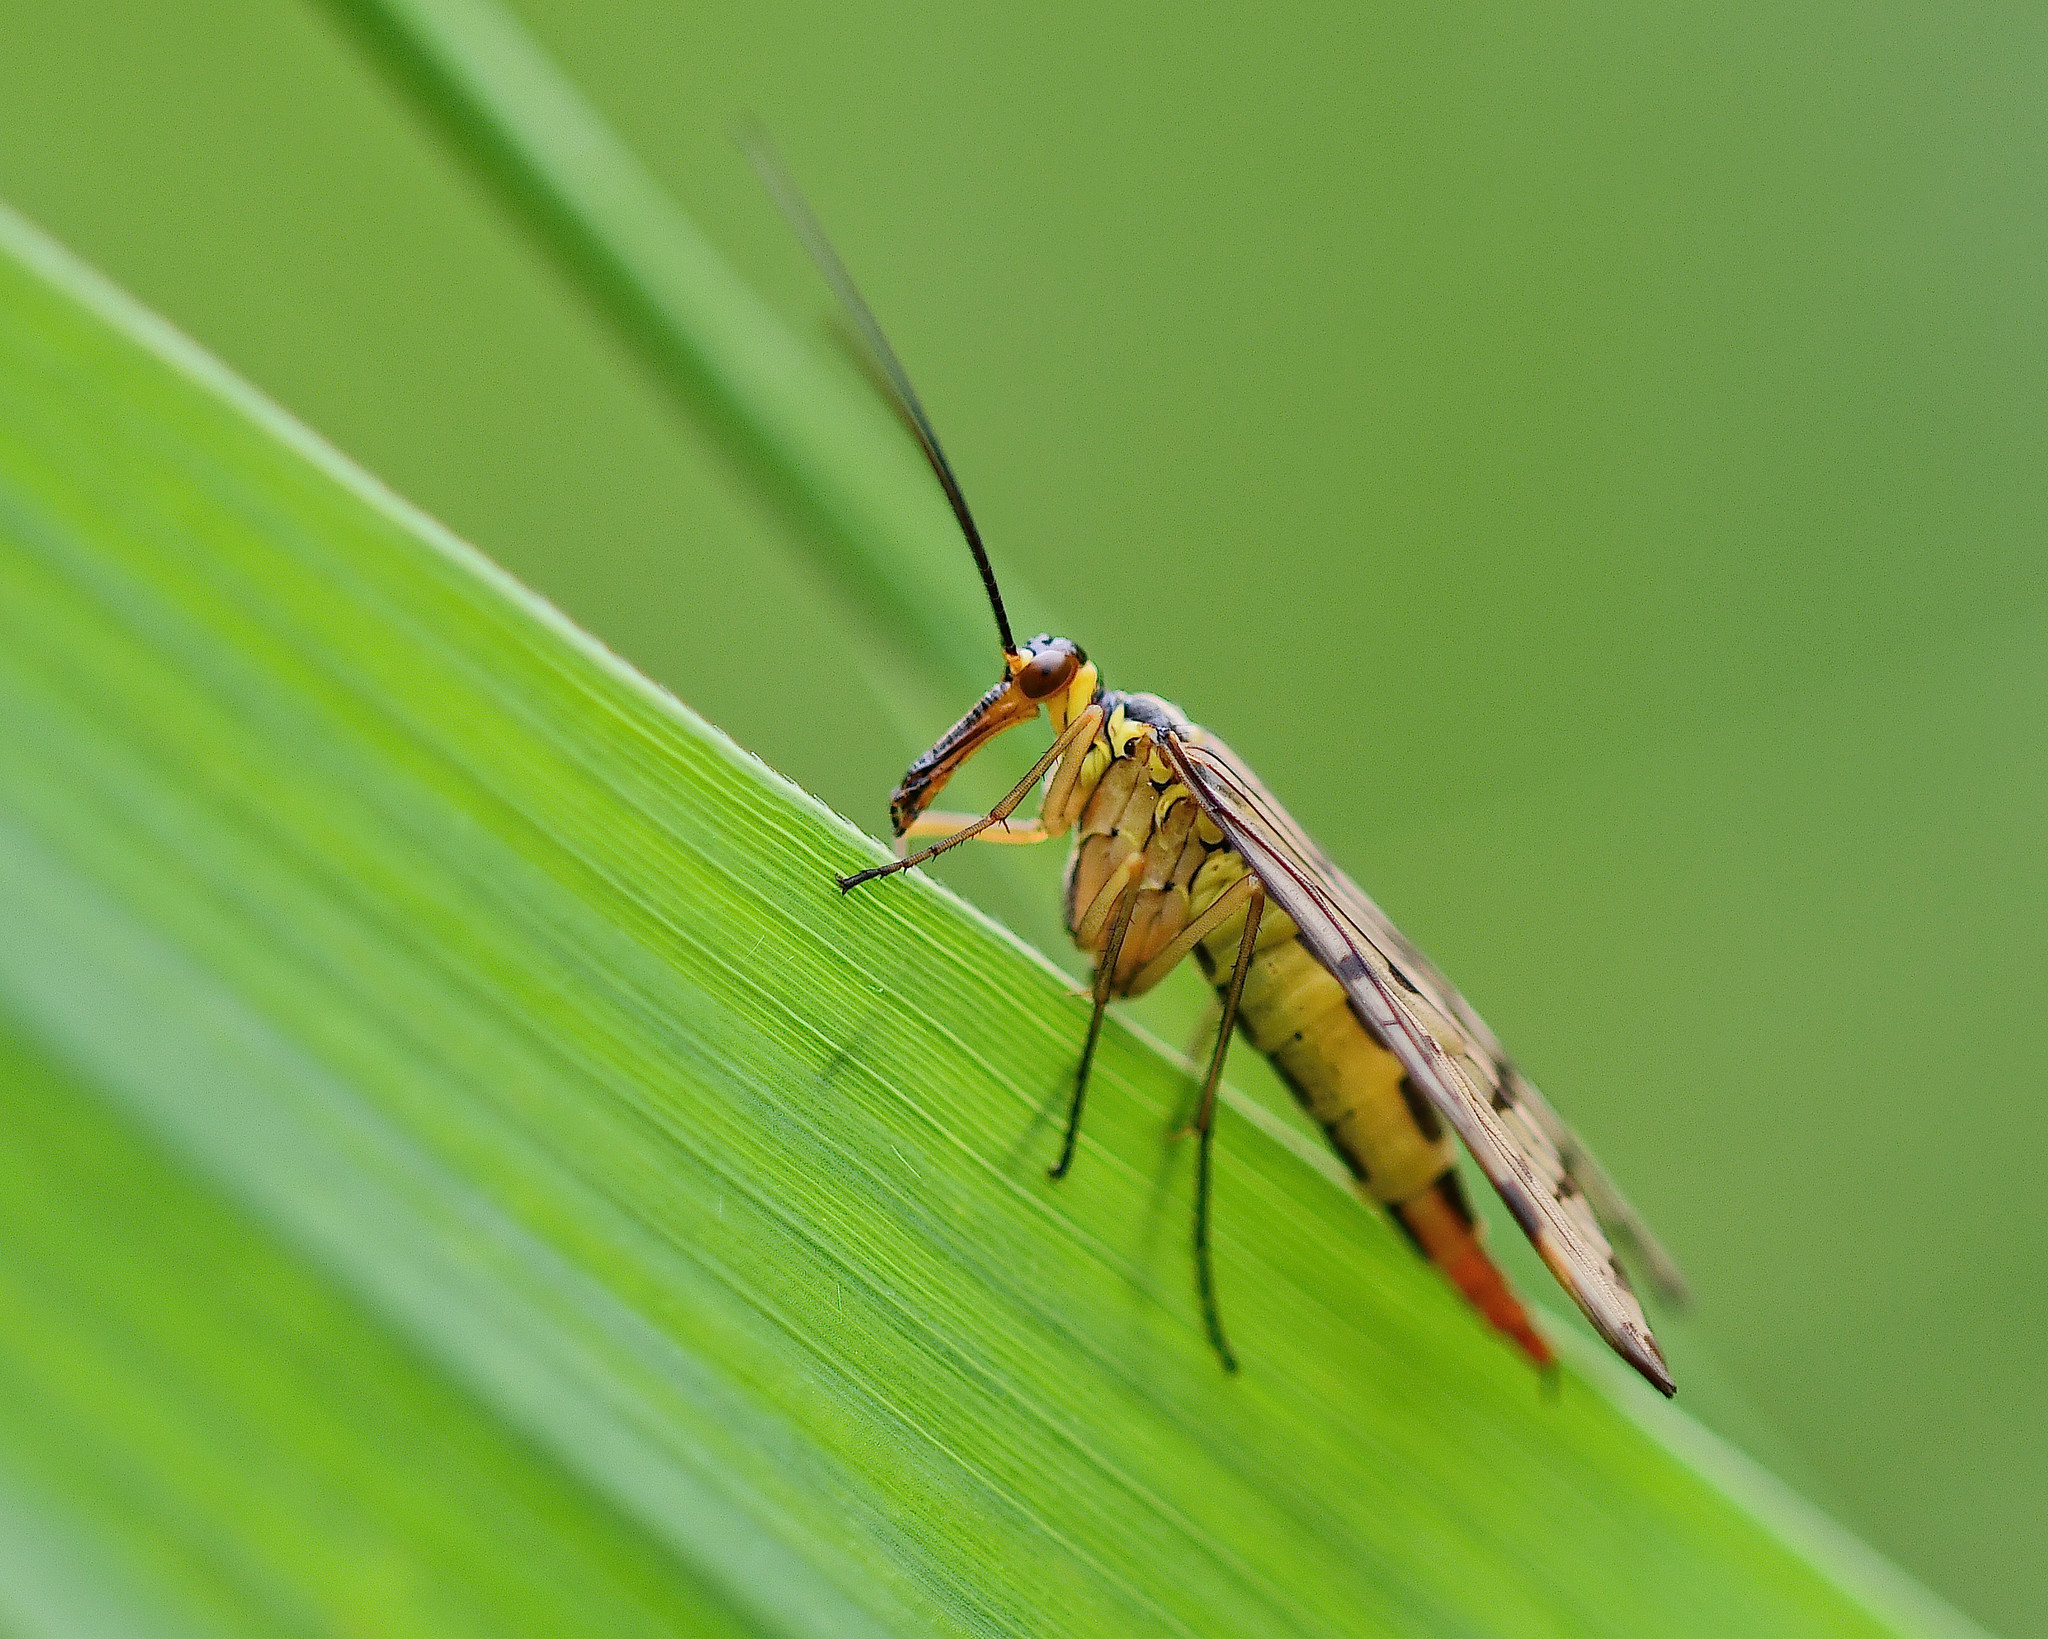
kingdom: Animalia
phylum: Arthropoda
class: Insecta
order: Mecoptera
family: Panorpidae
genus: Panorpa
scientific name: Panorpa communis
